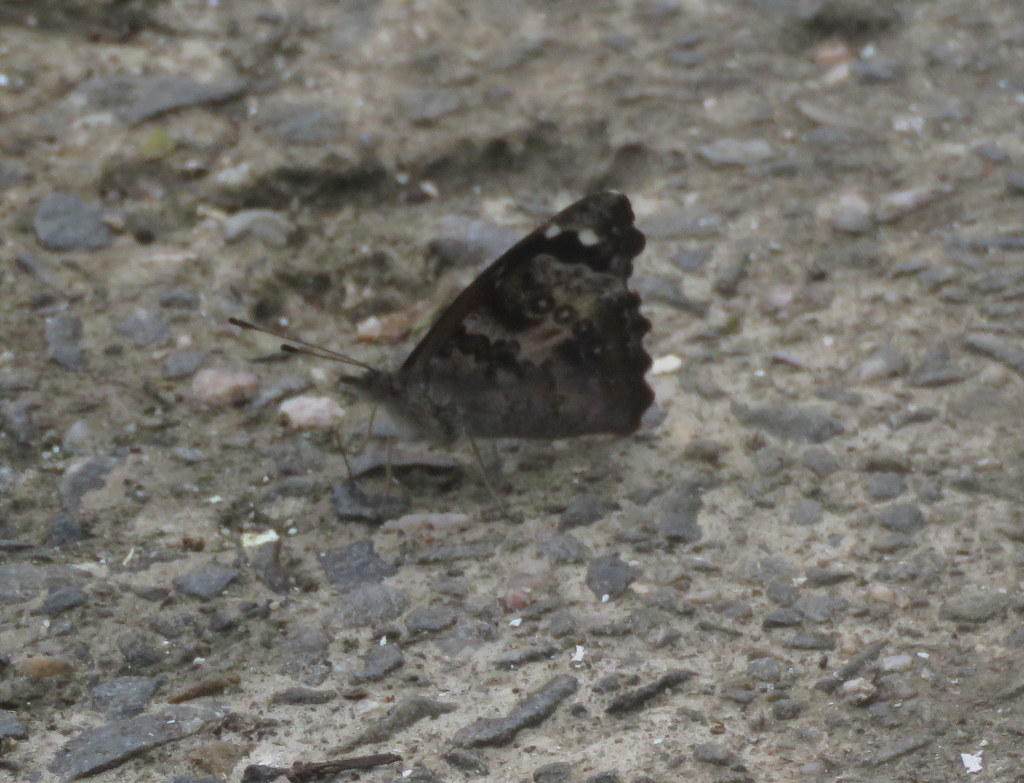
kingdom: Animalia
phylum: Arthropoda
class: Insecta
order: Lepidoptera
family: Nymphalidae
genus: Cybdelis
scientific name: Cybdelis
